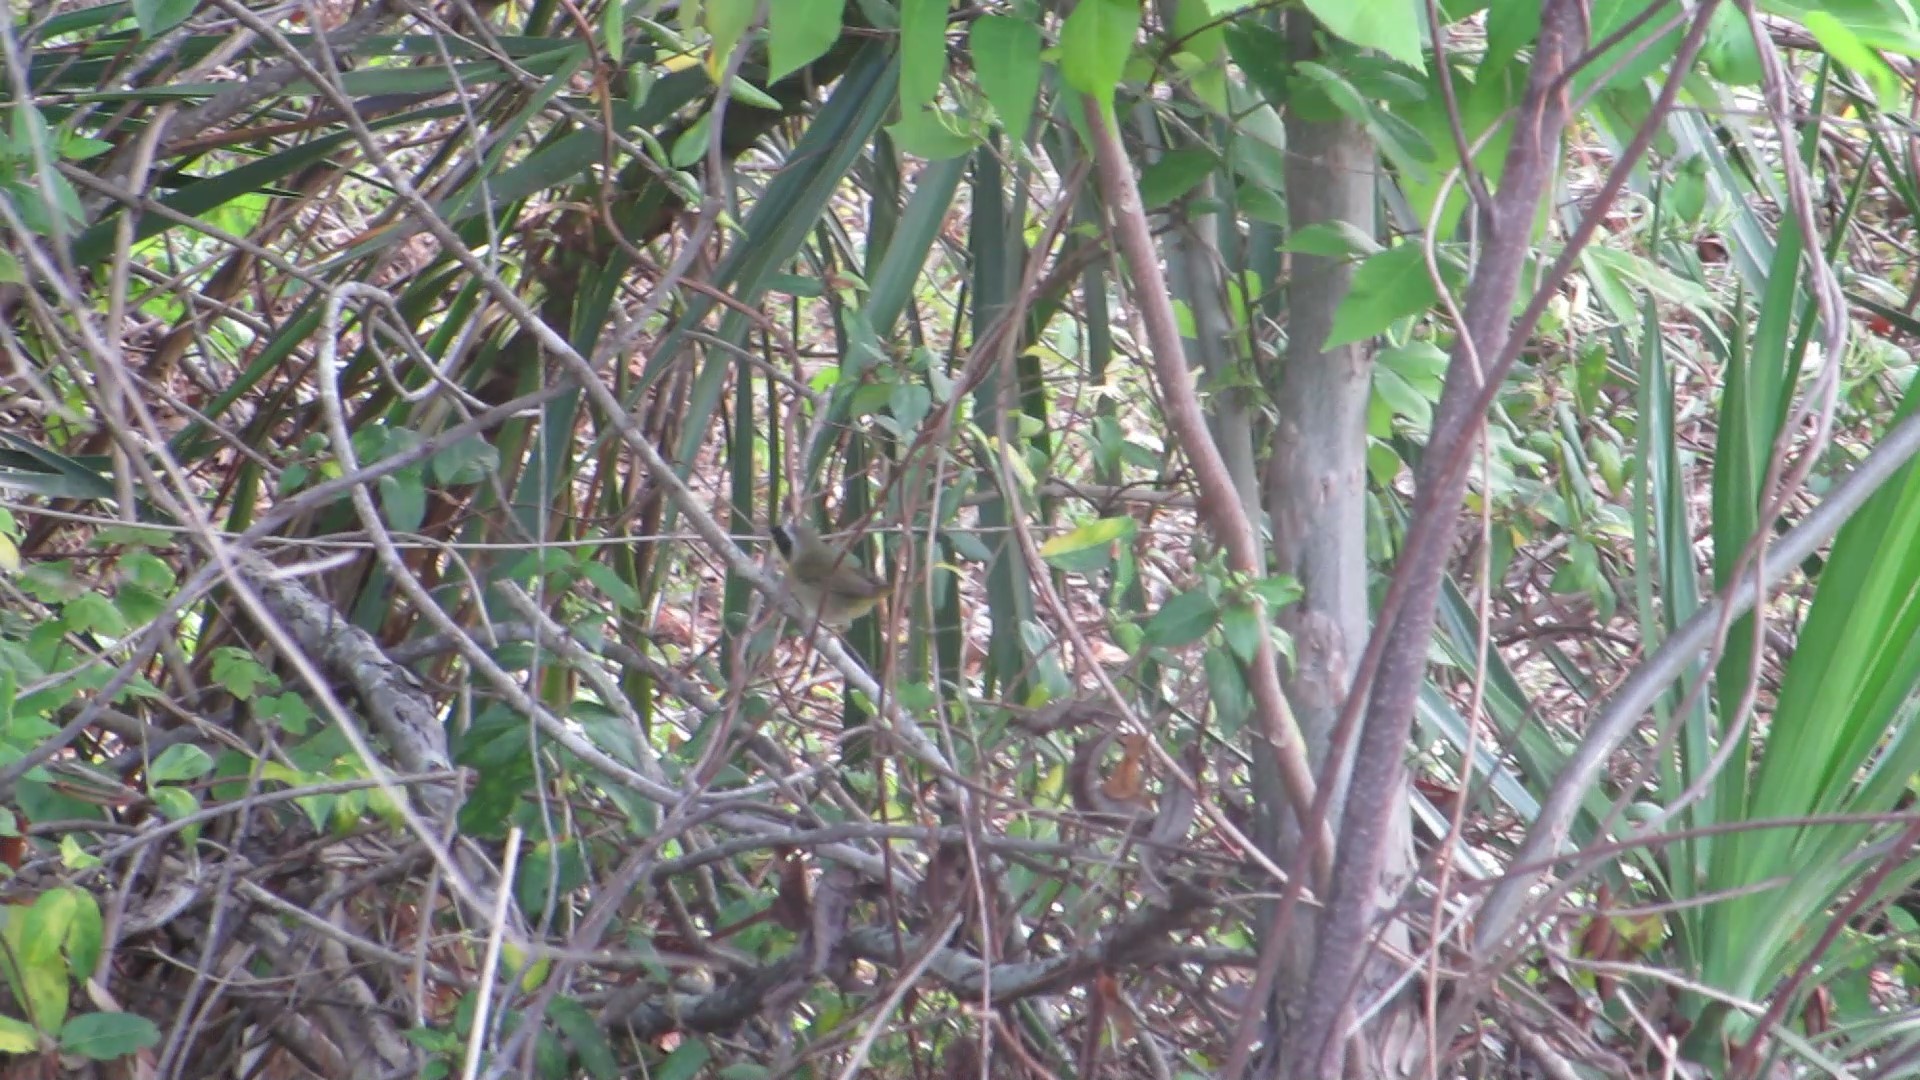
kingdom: Animalia
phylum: Chordata
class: Aves
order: Passeriformes
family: Parulidae
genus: Geothlypis
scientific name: Geothlypis trichas
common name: Common yellowthroat
